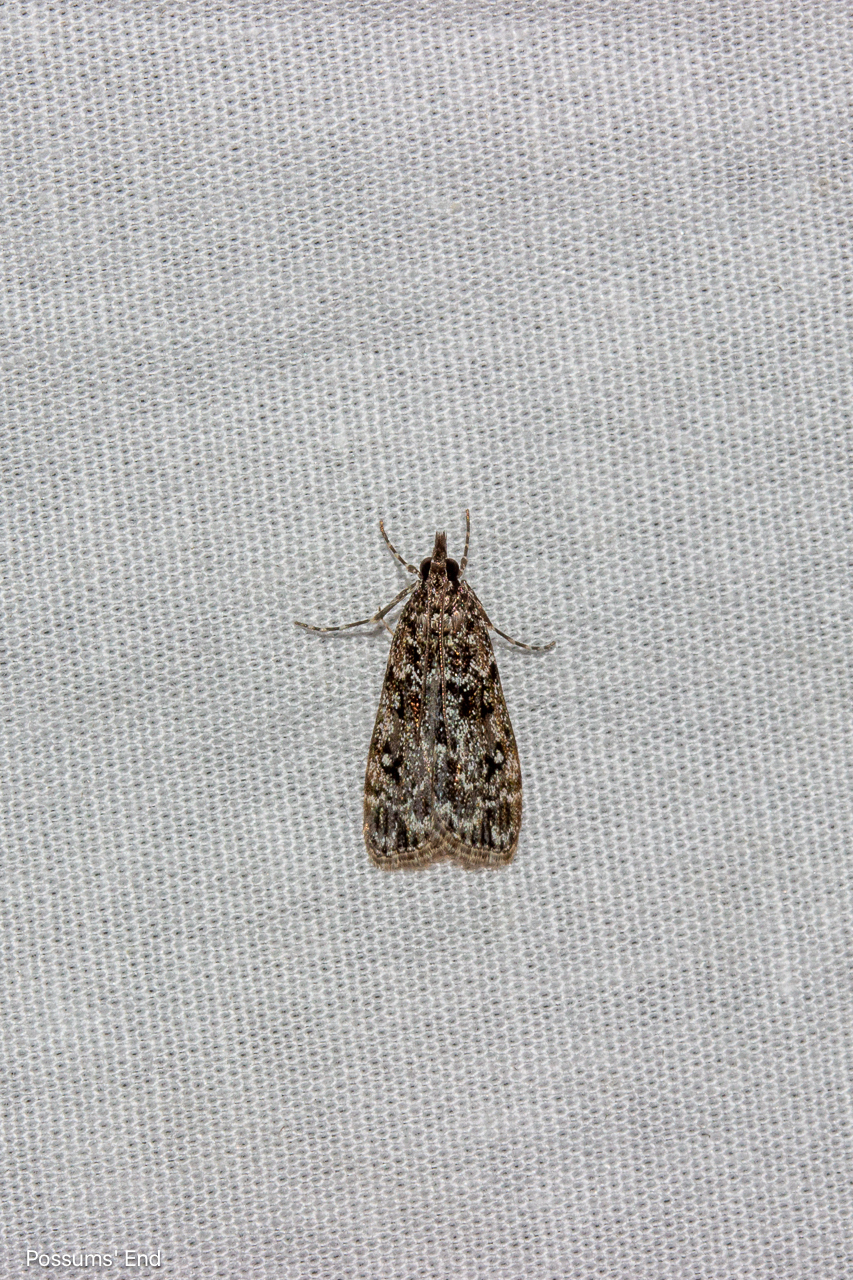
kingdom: Animalia
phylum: Arthropoda
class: Insecta
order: Lepidoptera
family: Crambidae
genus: Eudonia
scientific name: Eudonia philerga
